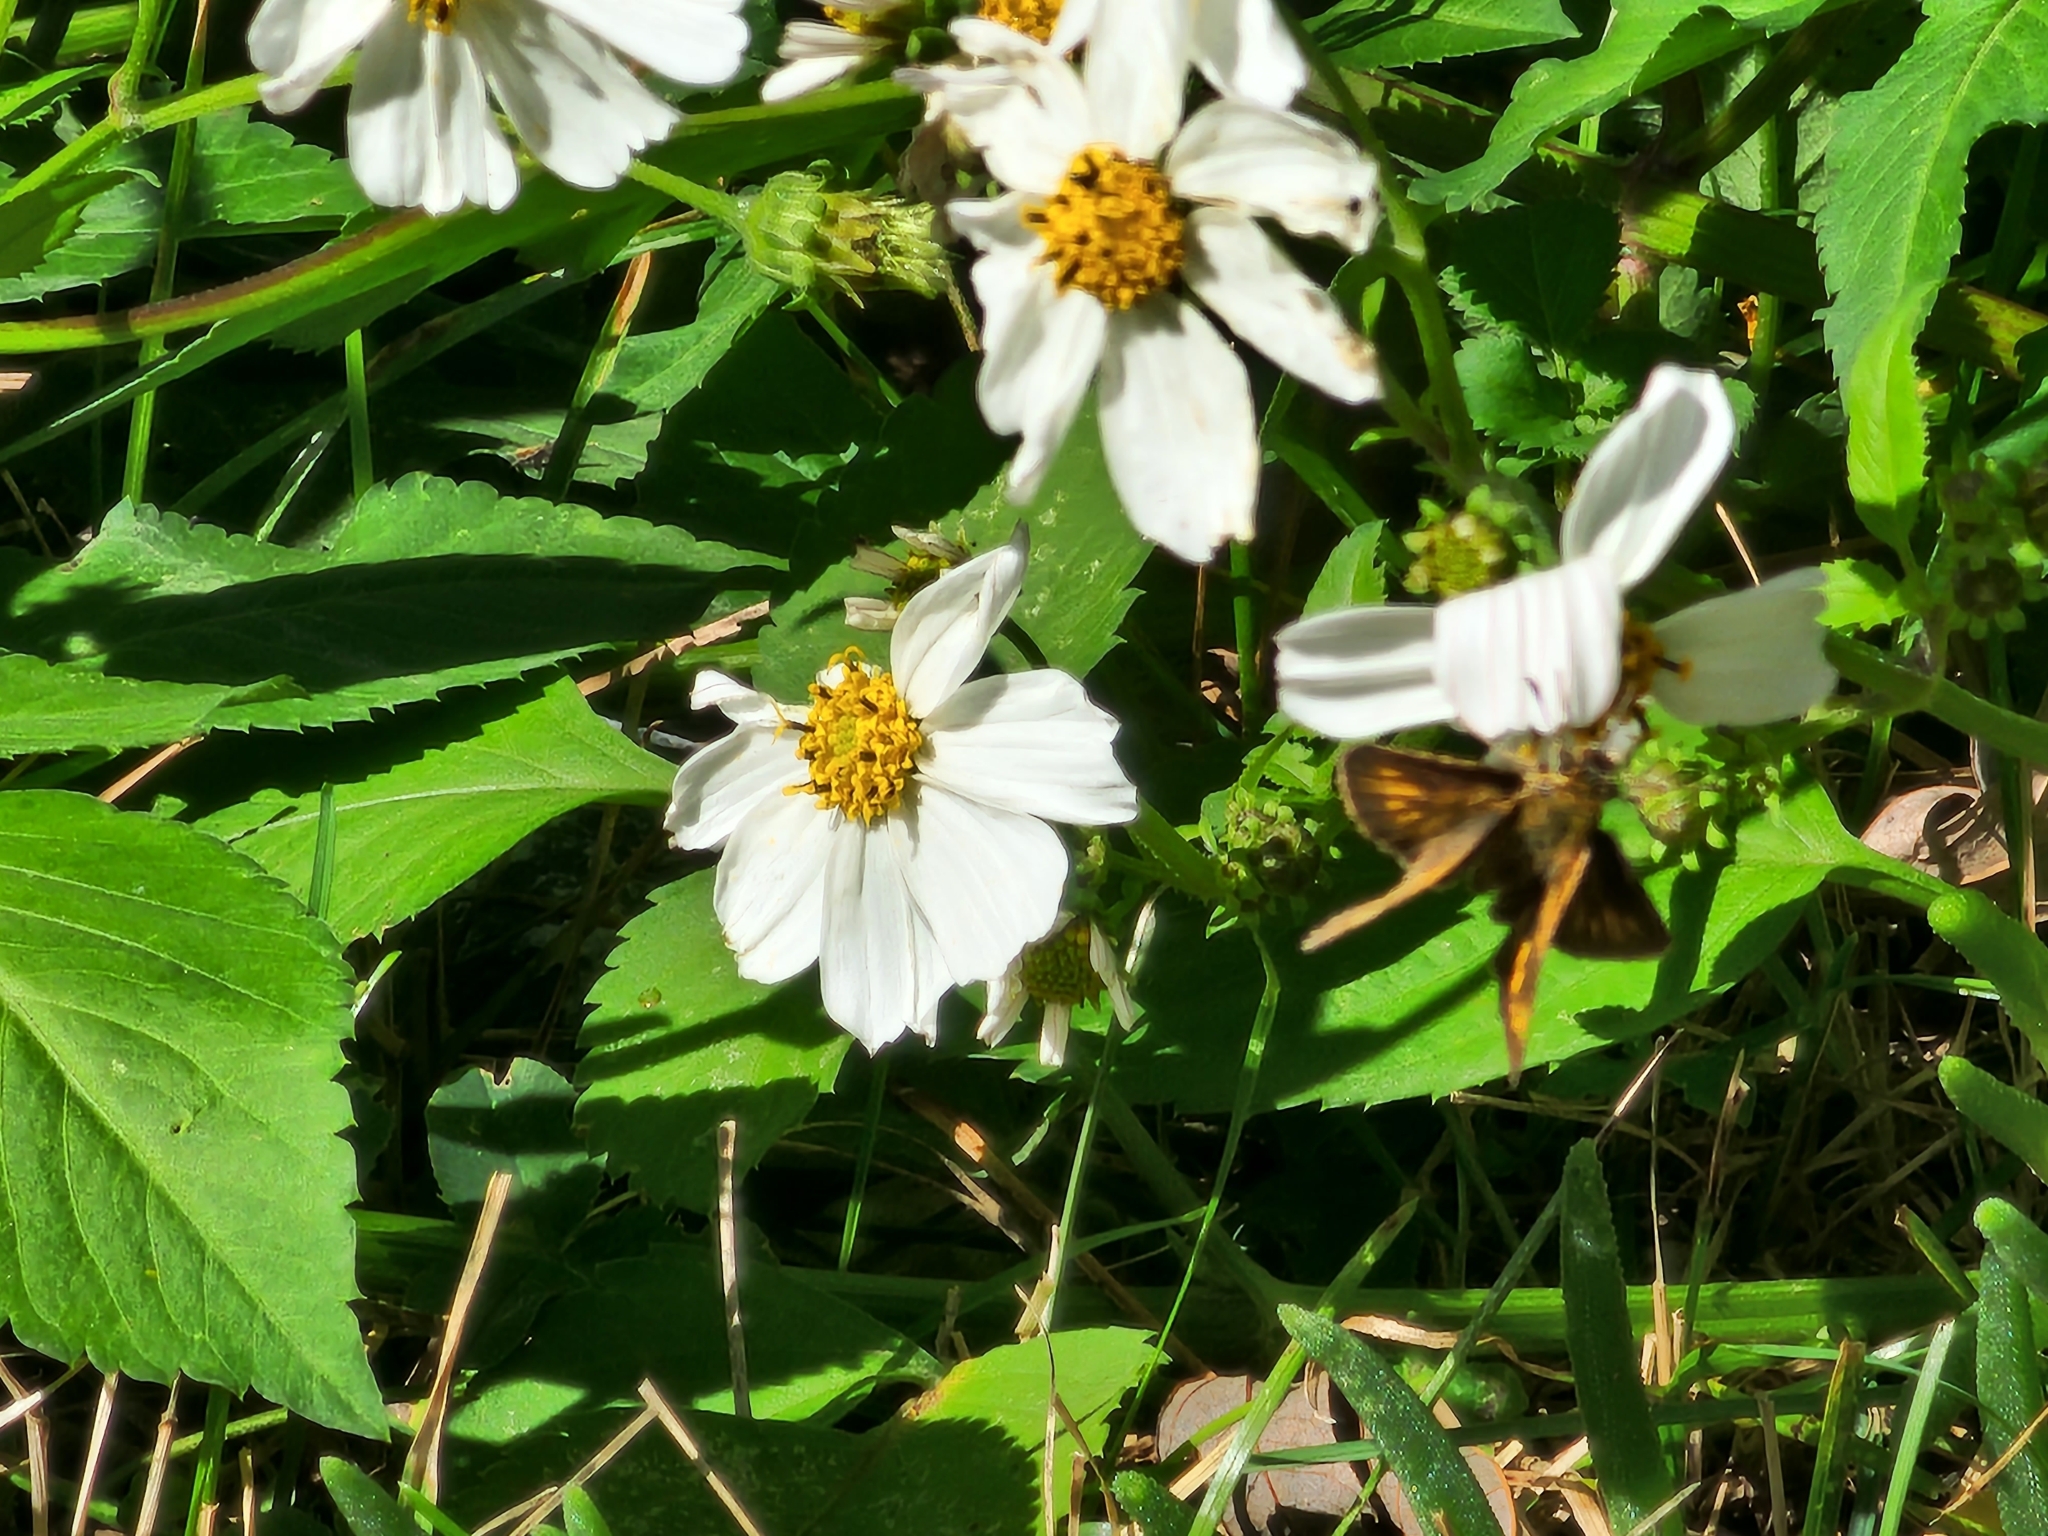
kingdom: Animalia
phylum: Arthropoda
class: Insecta
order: Lepidoptera
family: Hesperiidae
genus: Polites
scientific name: Polites coras
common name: Peck's skipper
